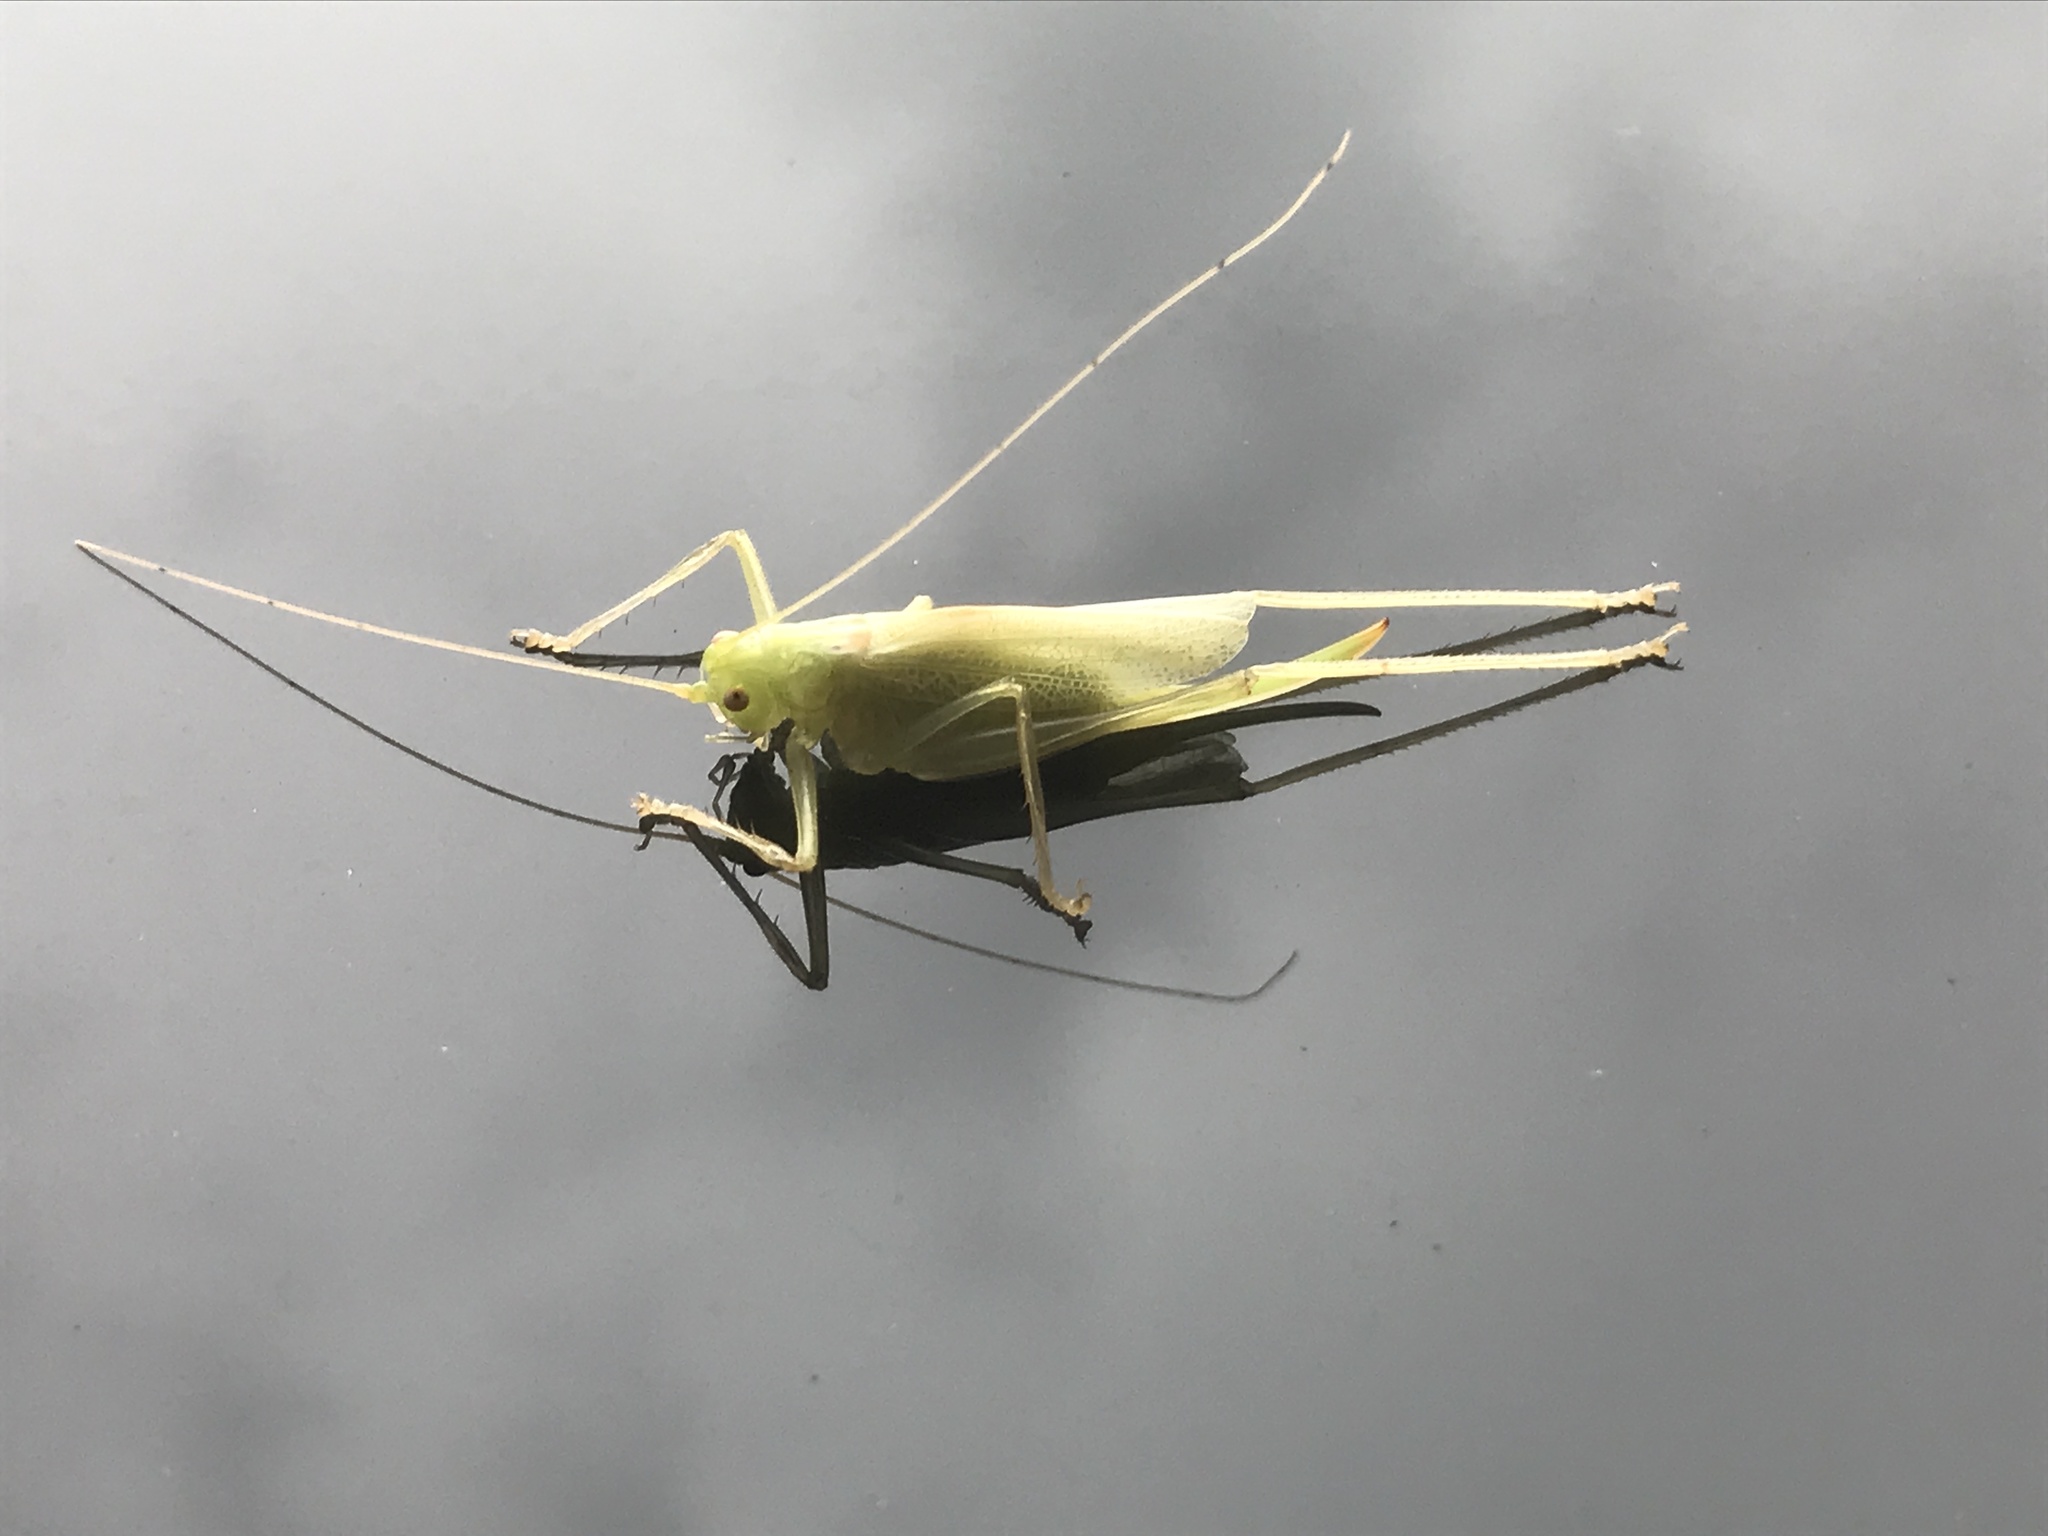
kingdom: Animalia
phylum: Arthropoda
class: Insecta
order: Orthoptera
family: Tettigoniidae
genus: Meconema
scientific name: Meconema thalassinum
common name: Oak bush-cricket
